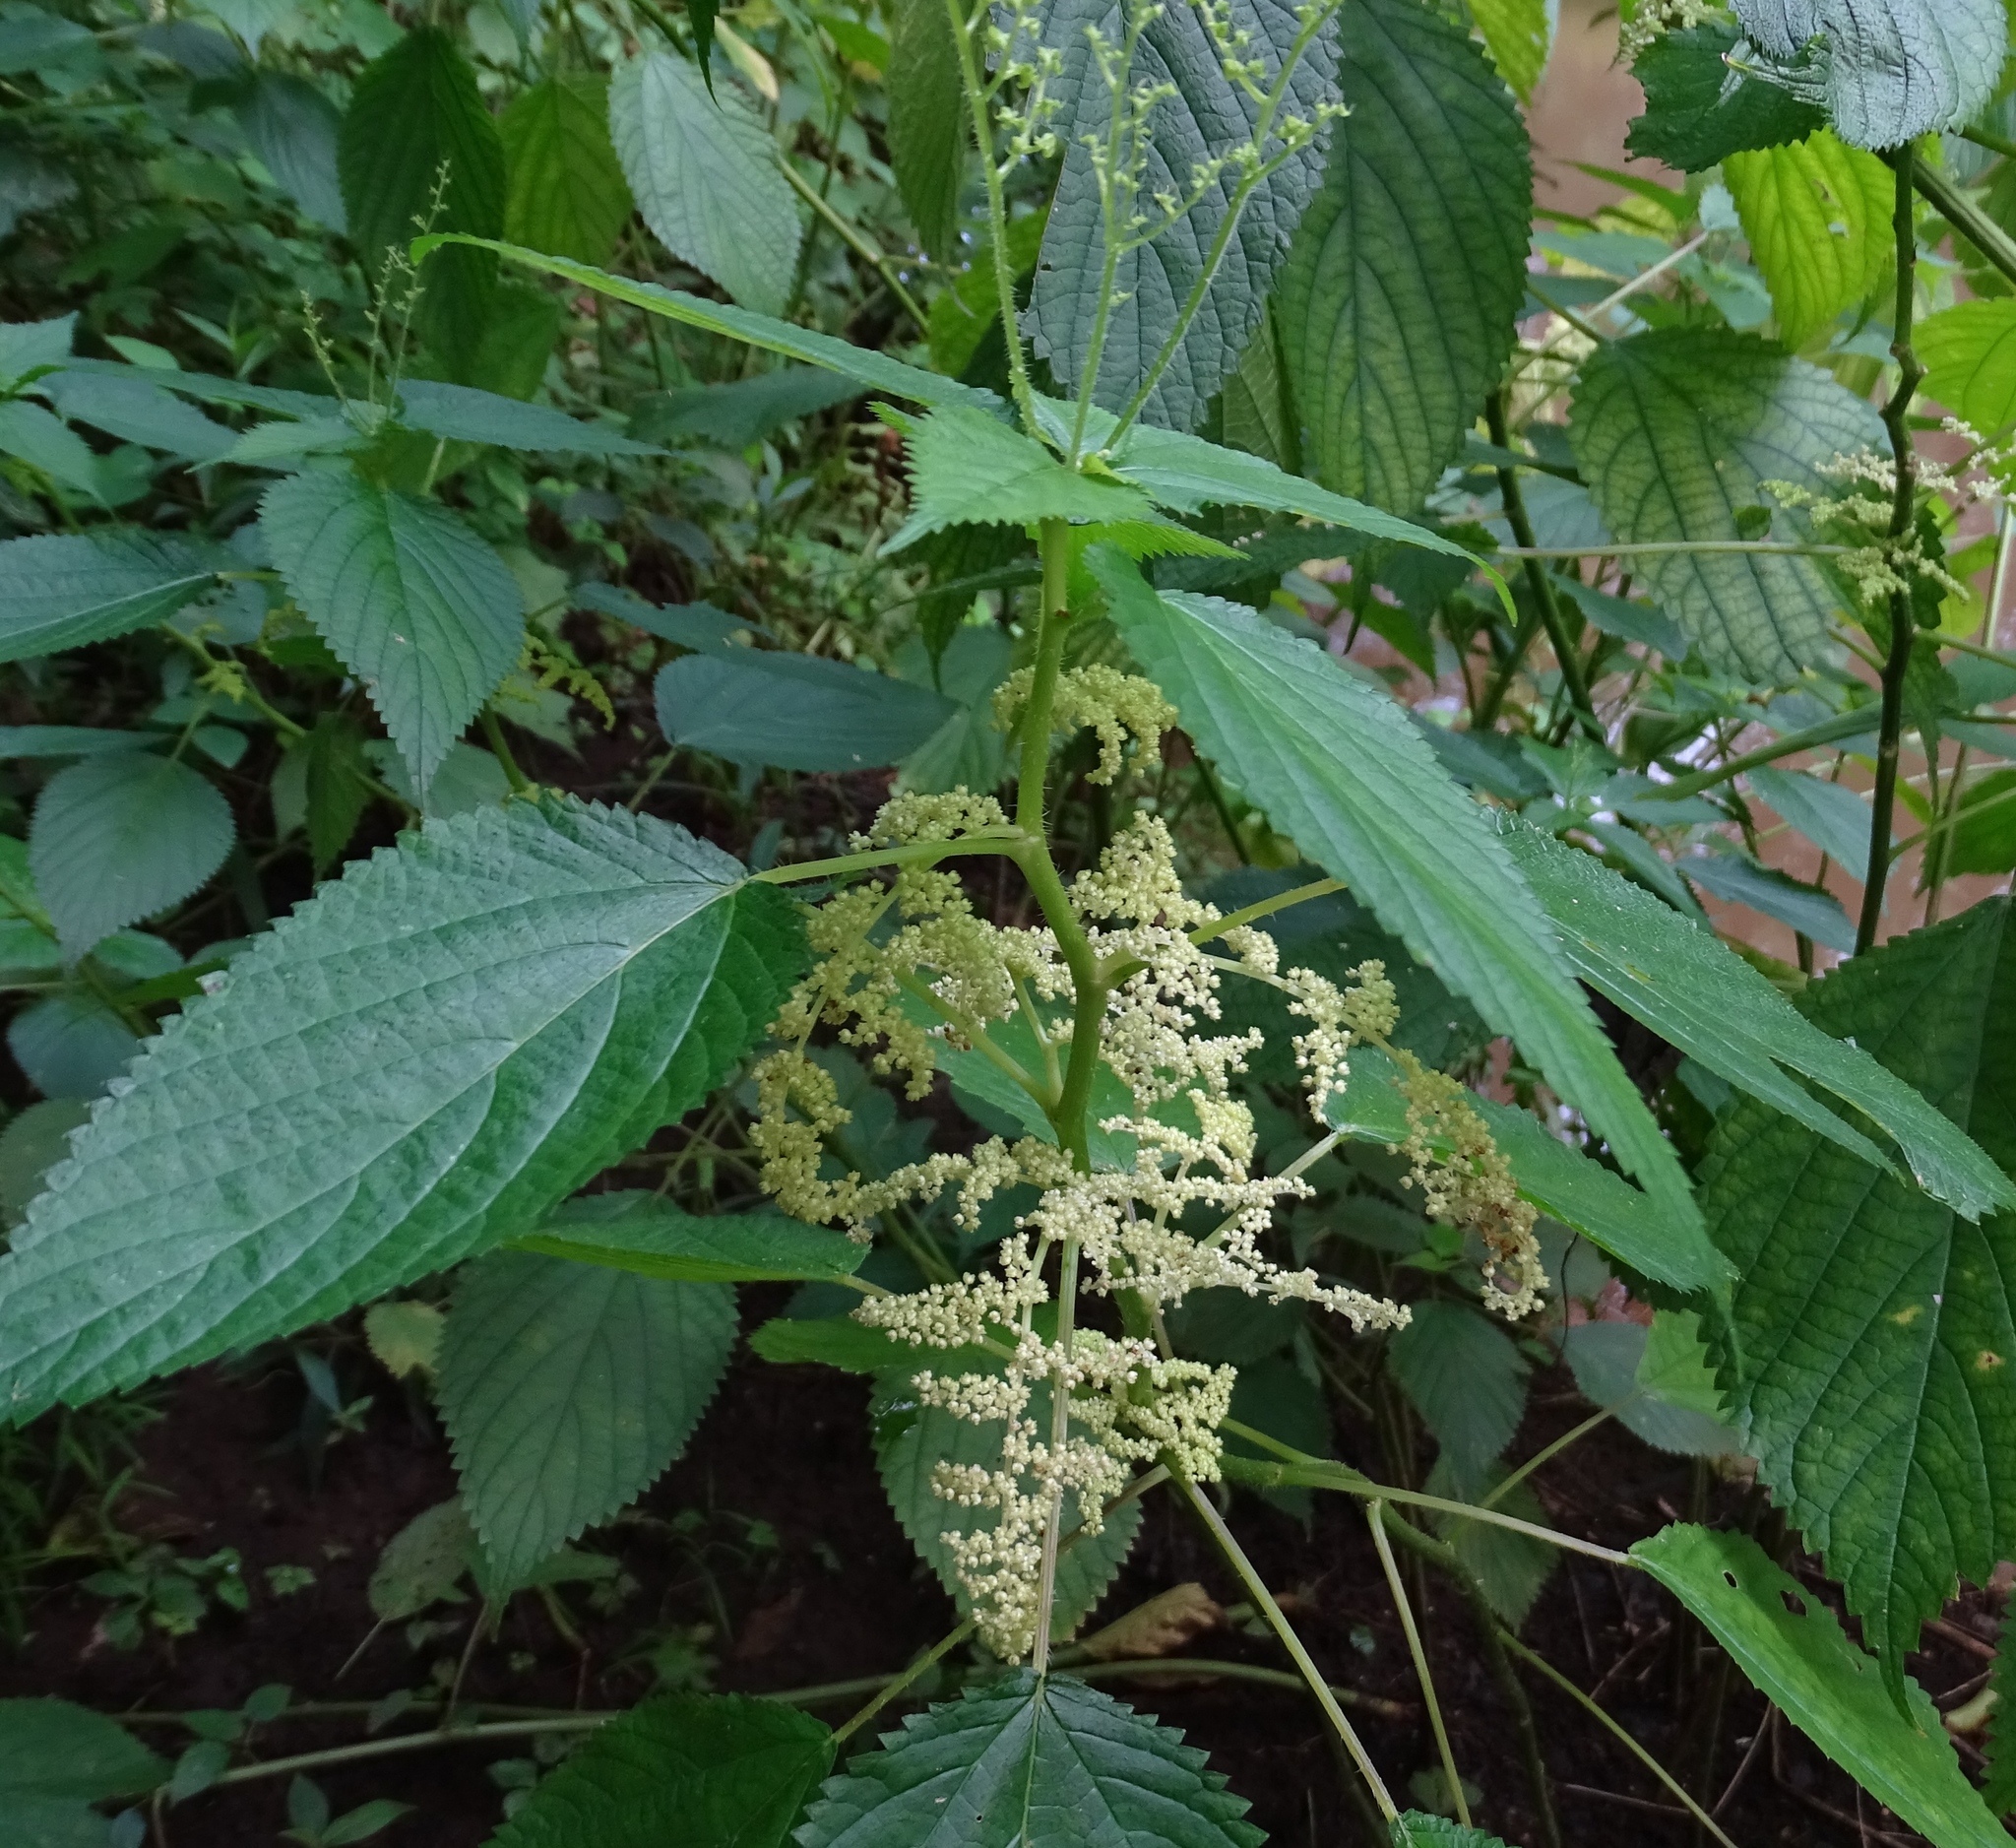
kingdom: Plantae
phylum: Tracheophyta
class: Magnoliopsida
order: Rosales
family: Urticaceae
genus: Boehmeria
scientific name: Boehmeria cylindrica
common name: Bog-hemp
